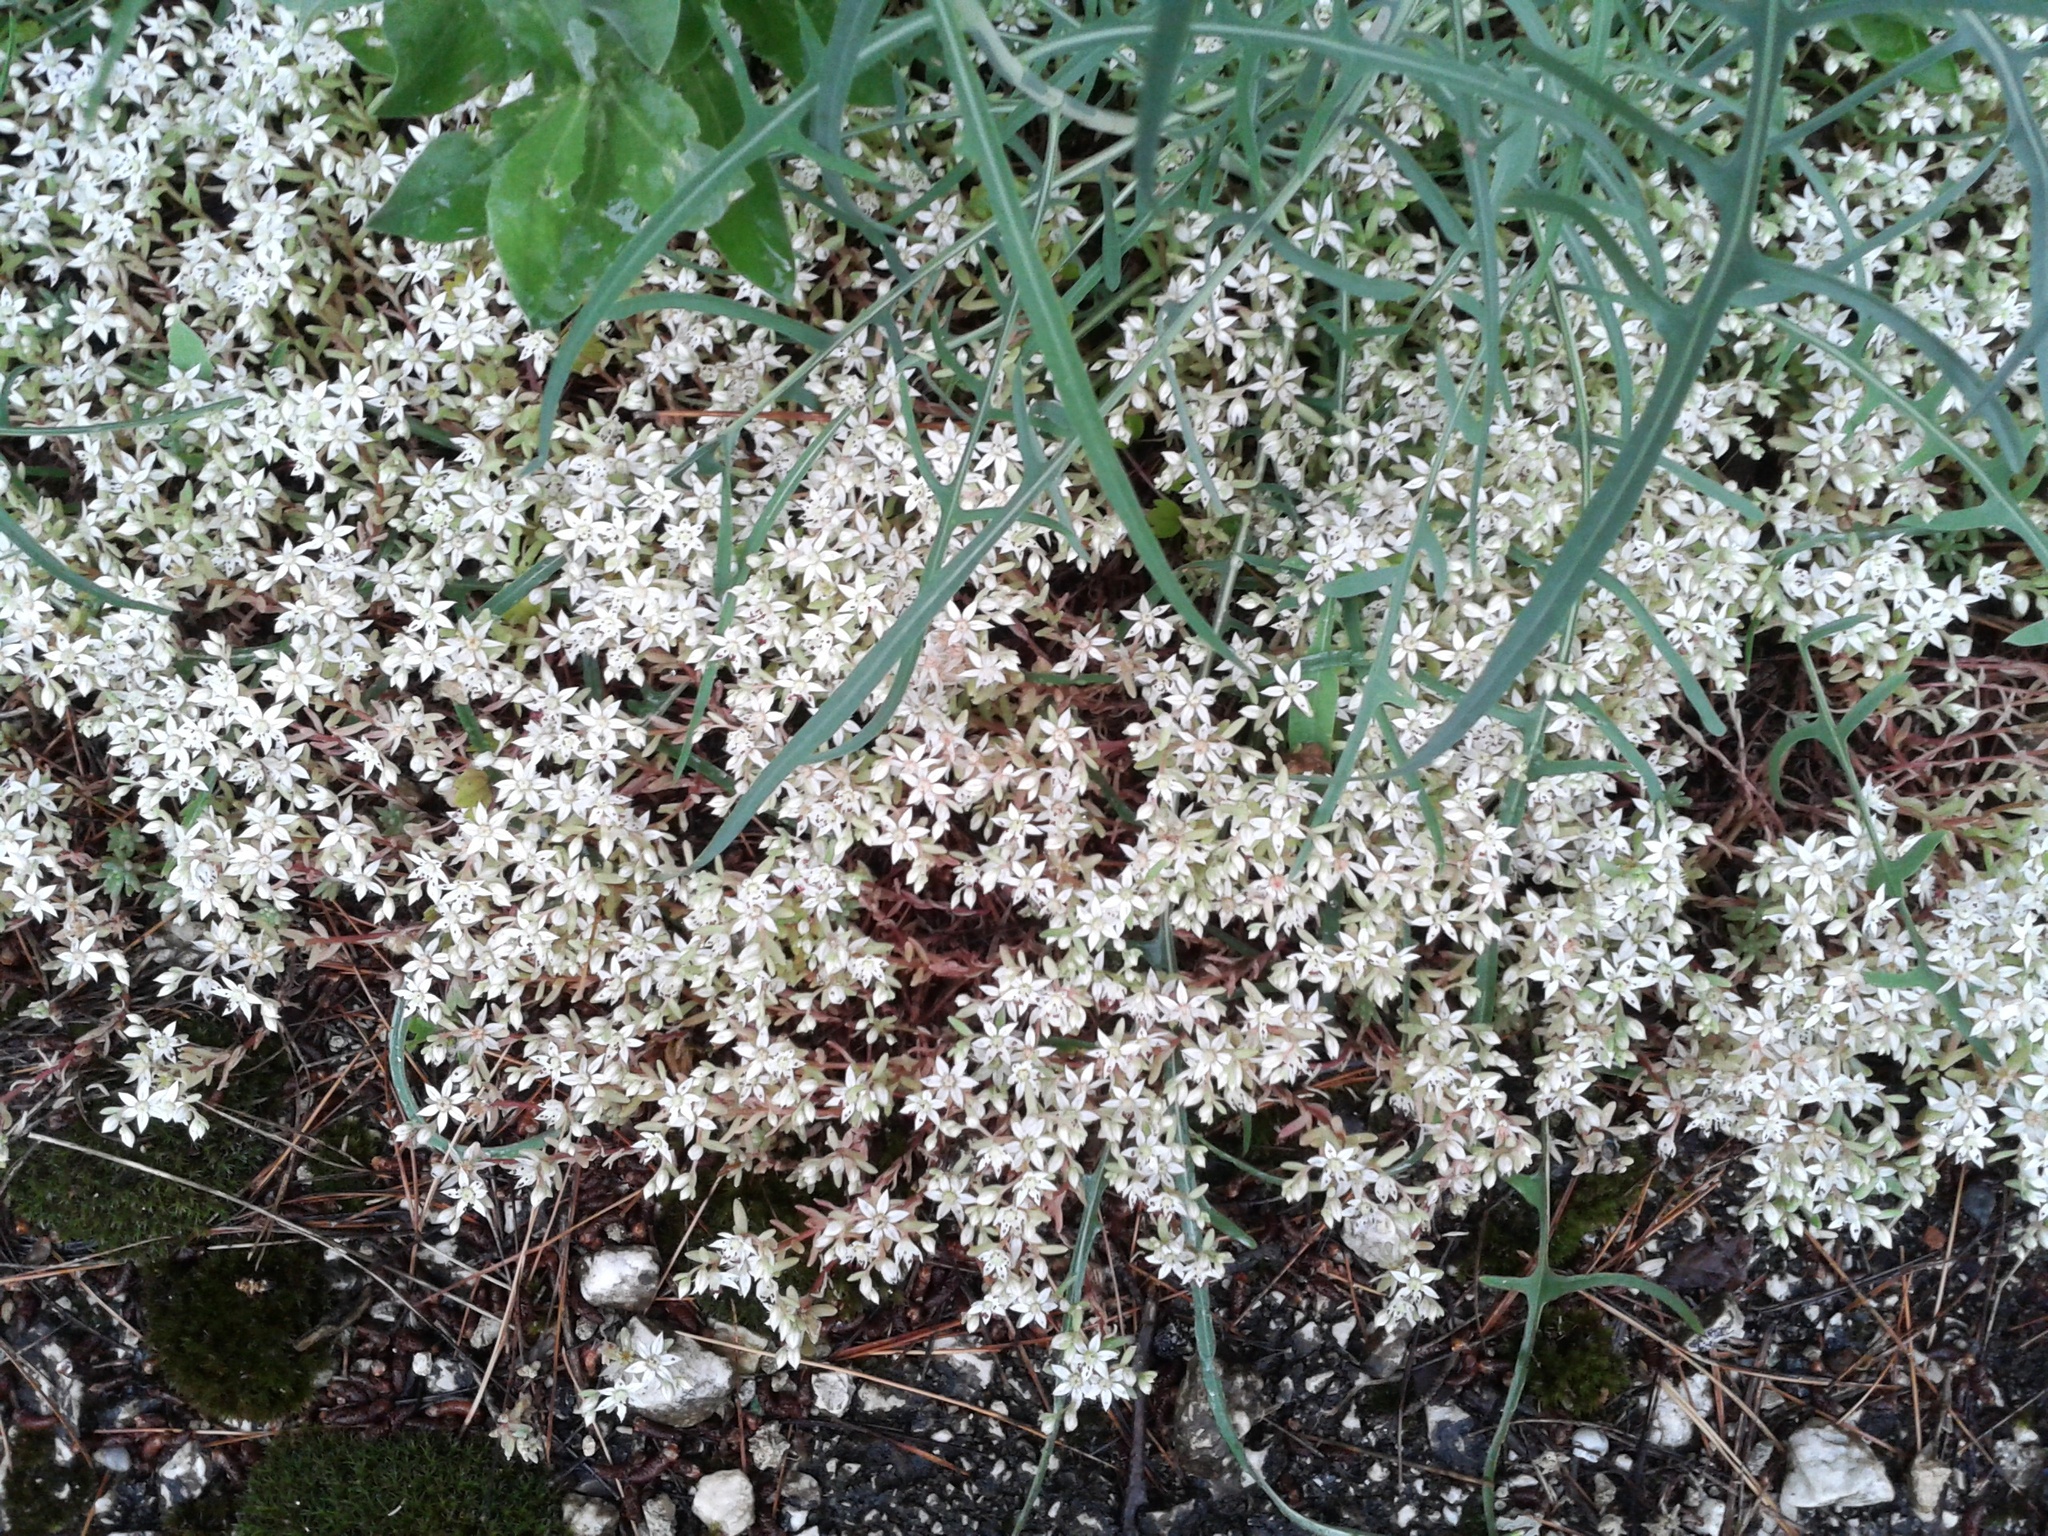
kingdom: Plantae
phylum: Tracheophyta
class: Magnoliopsida
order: Saxifragales
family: Crassulaceae
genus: Sedum
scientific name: Sedum hispanicum
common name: Spanish stonecrop
